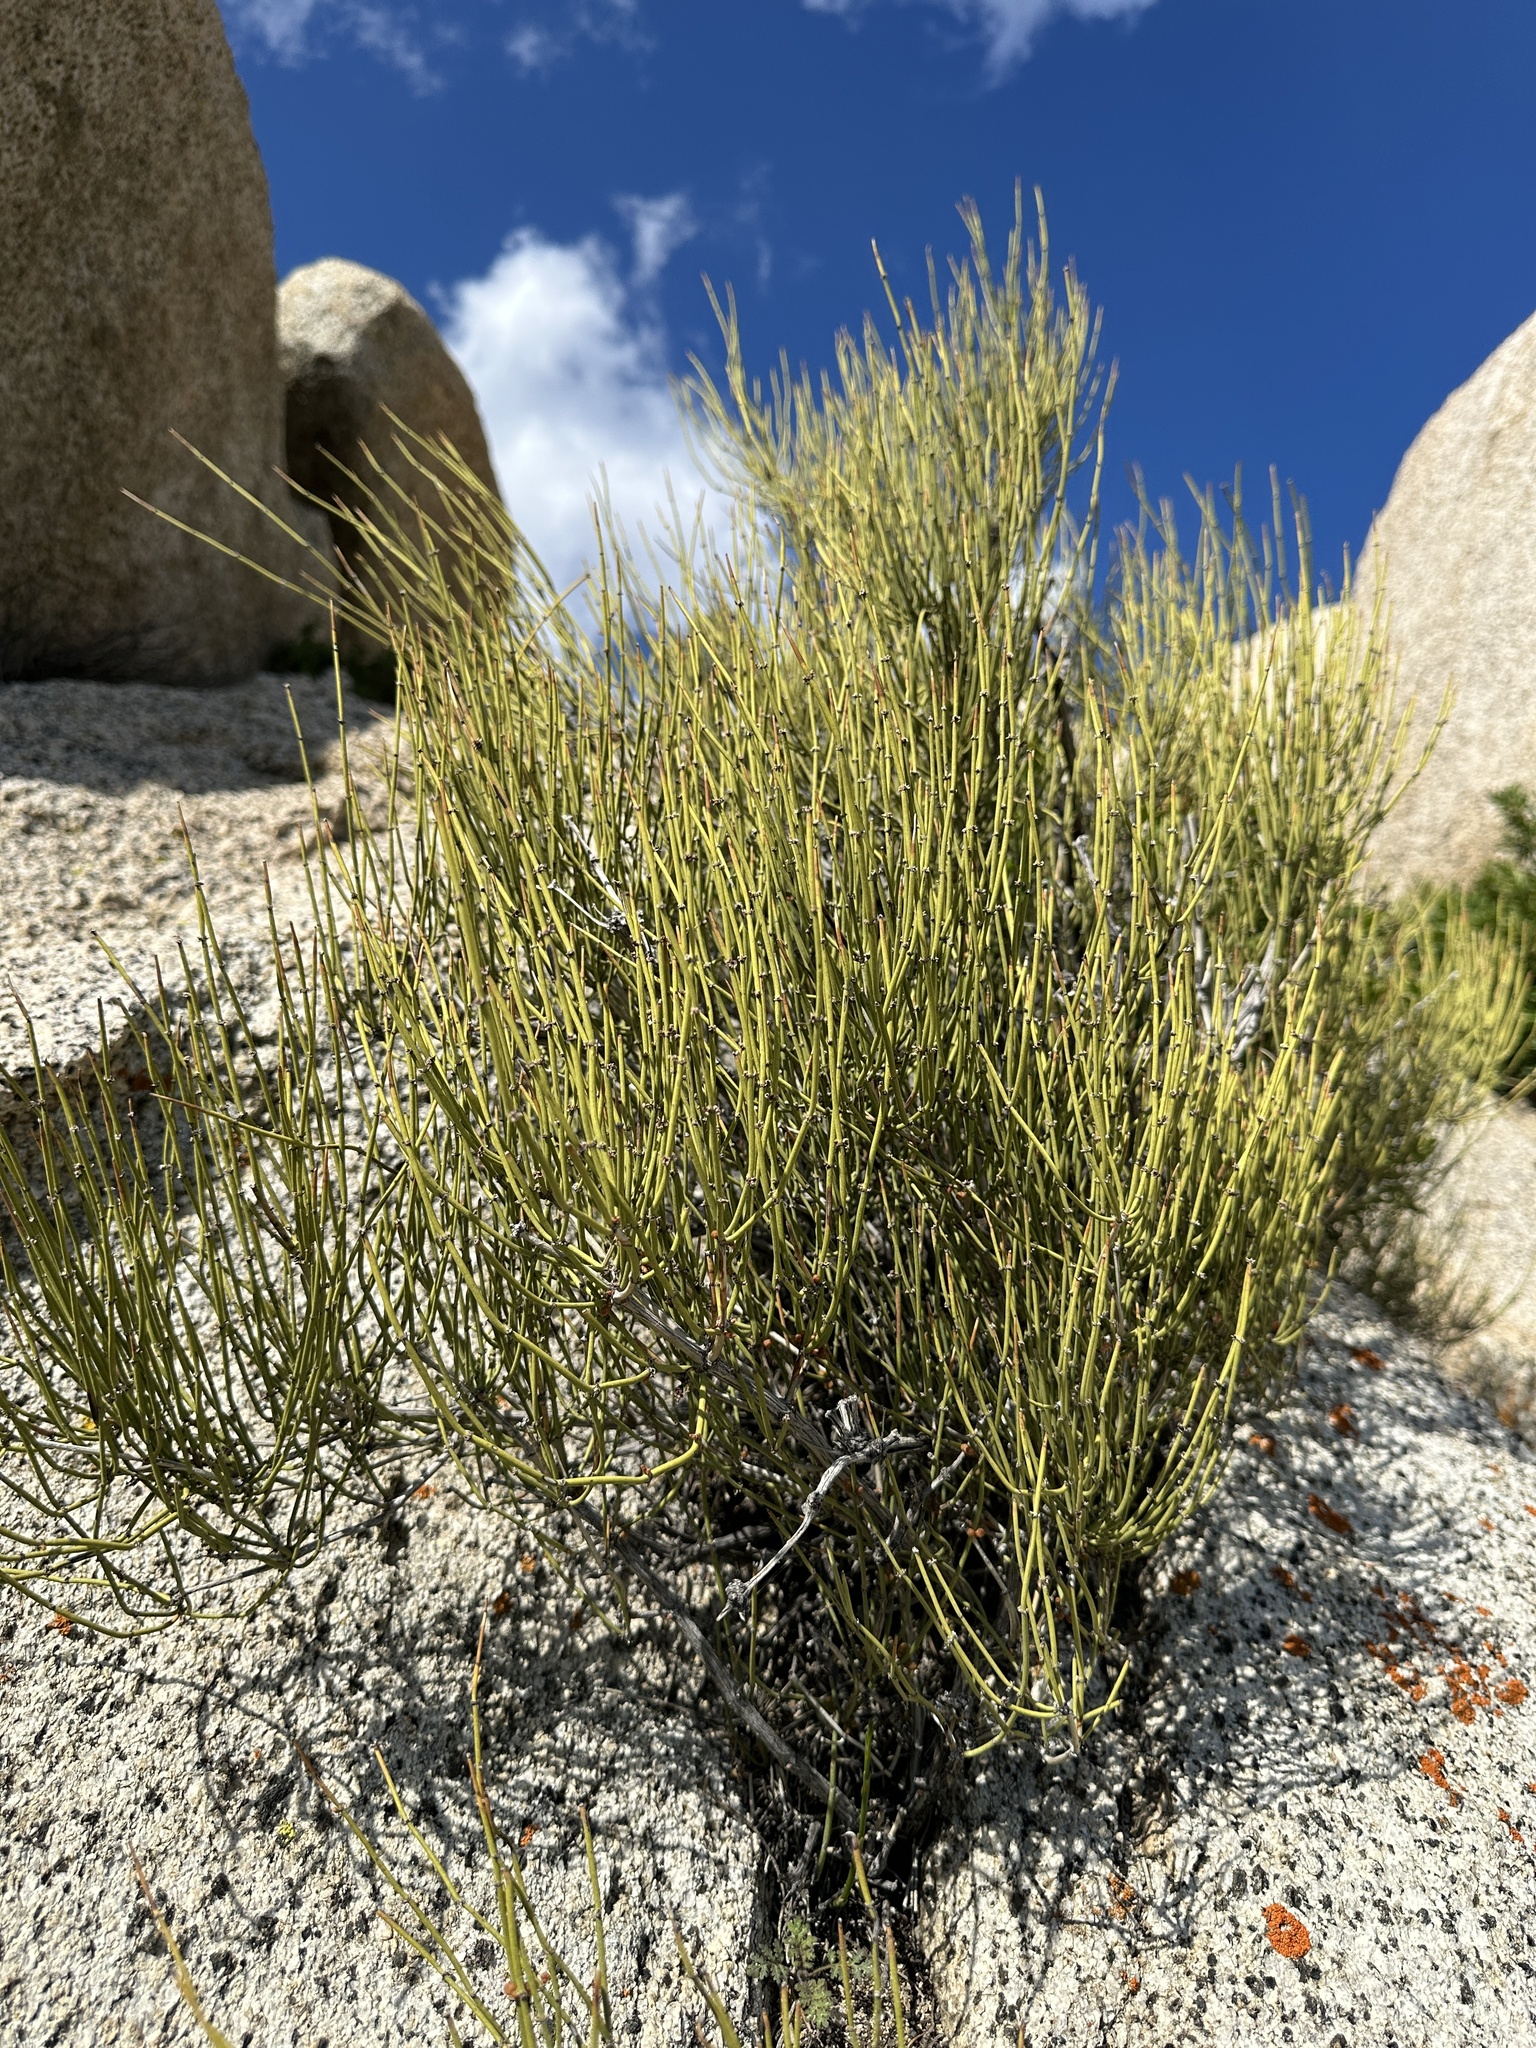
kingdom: Plantae
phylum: Tracheophyta
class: Gnetopsida
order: Ephedrales
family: Ephedraceae
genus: Ephedra
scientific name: Ephedra viridis
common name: Green ephedra
